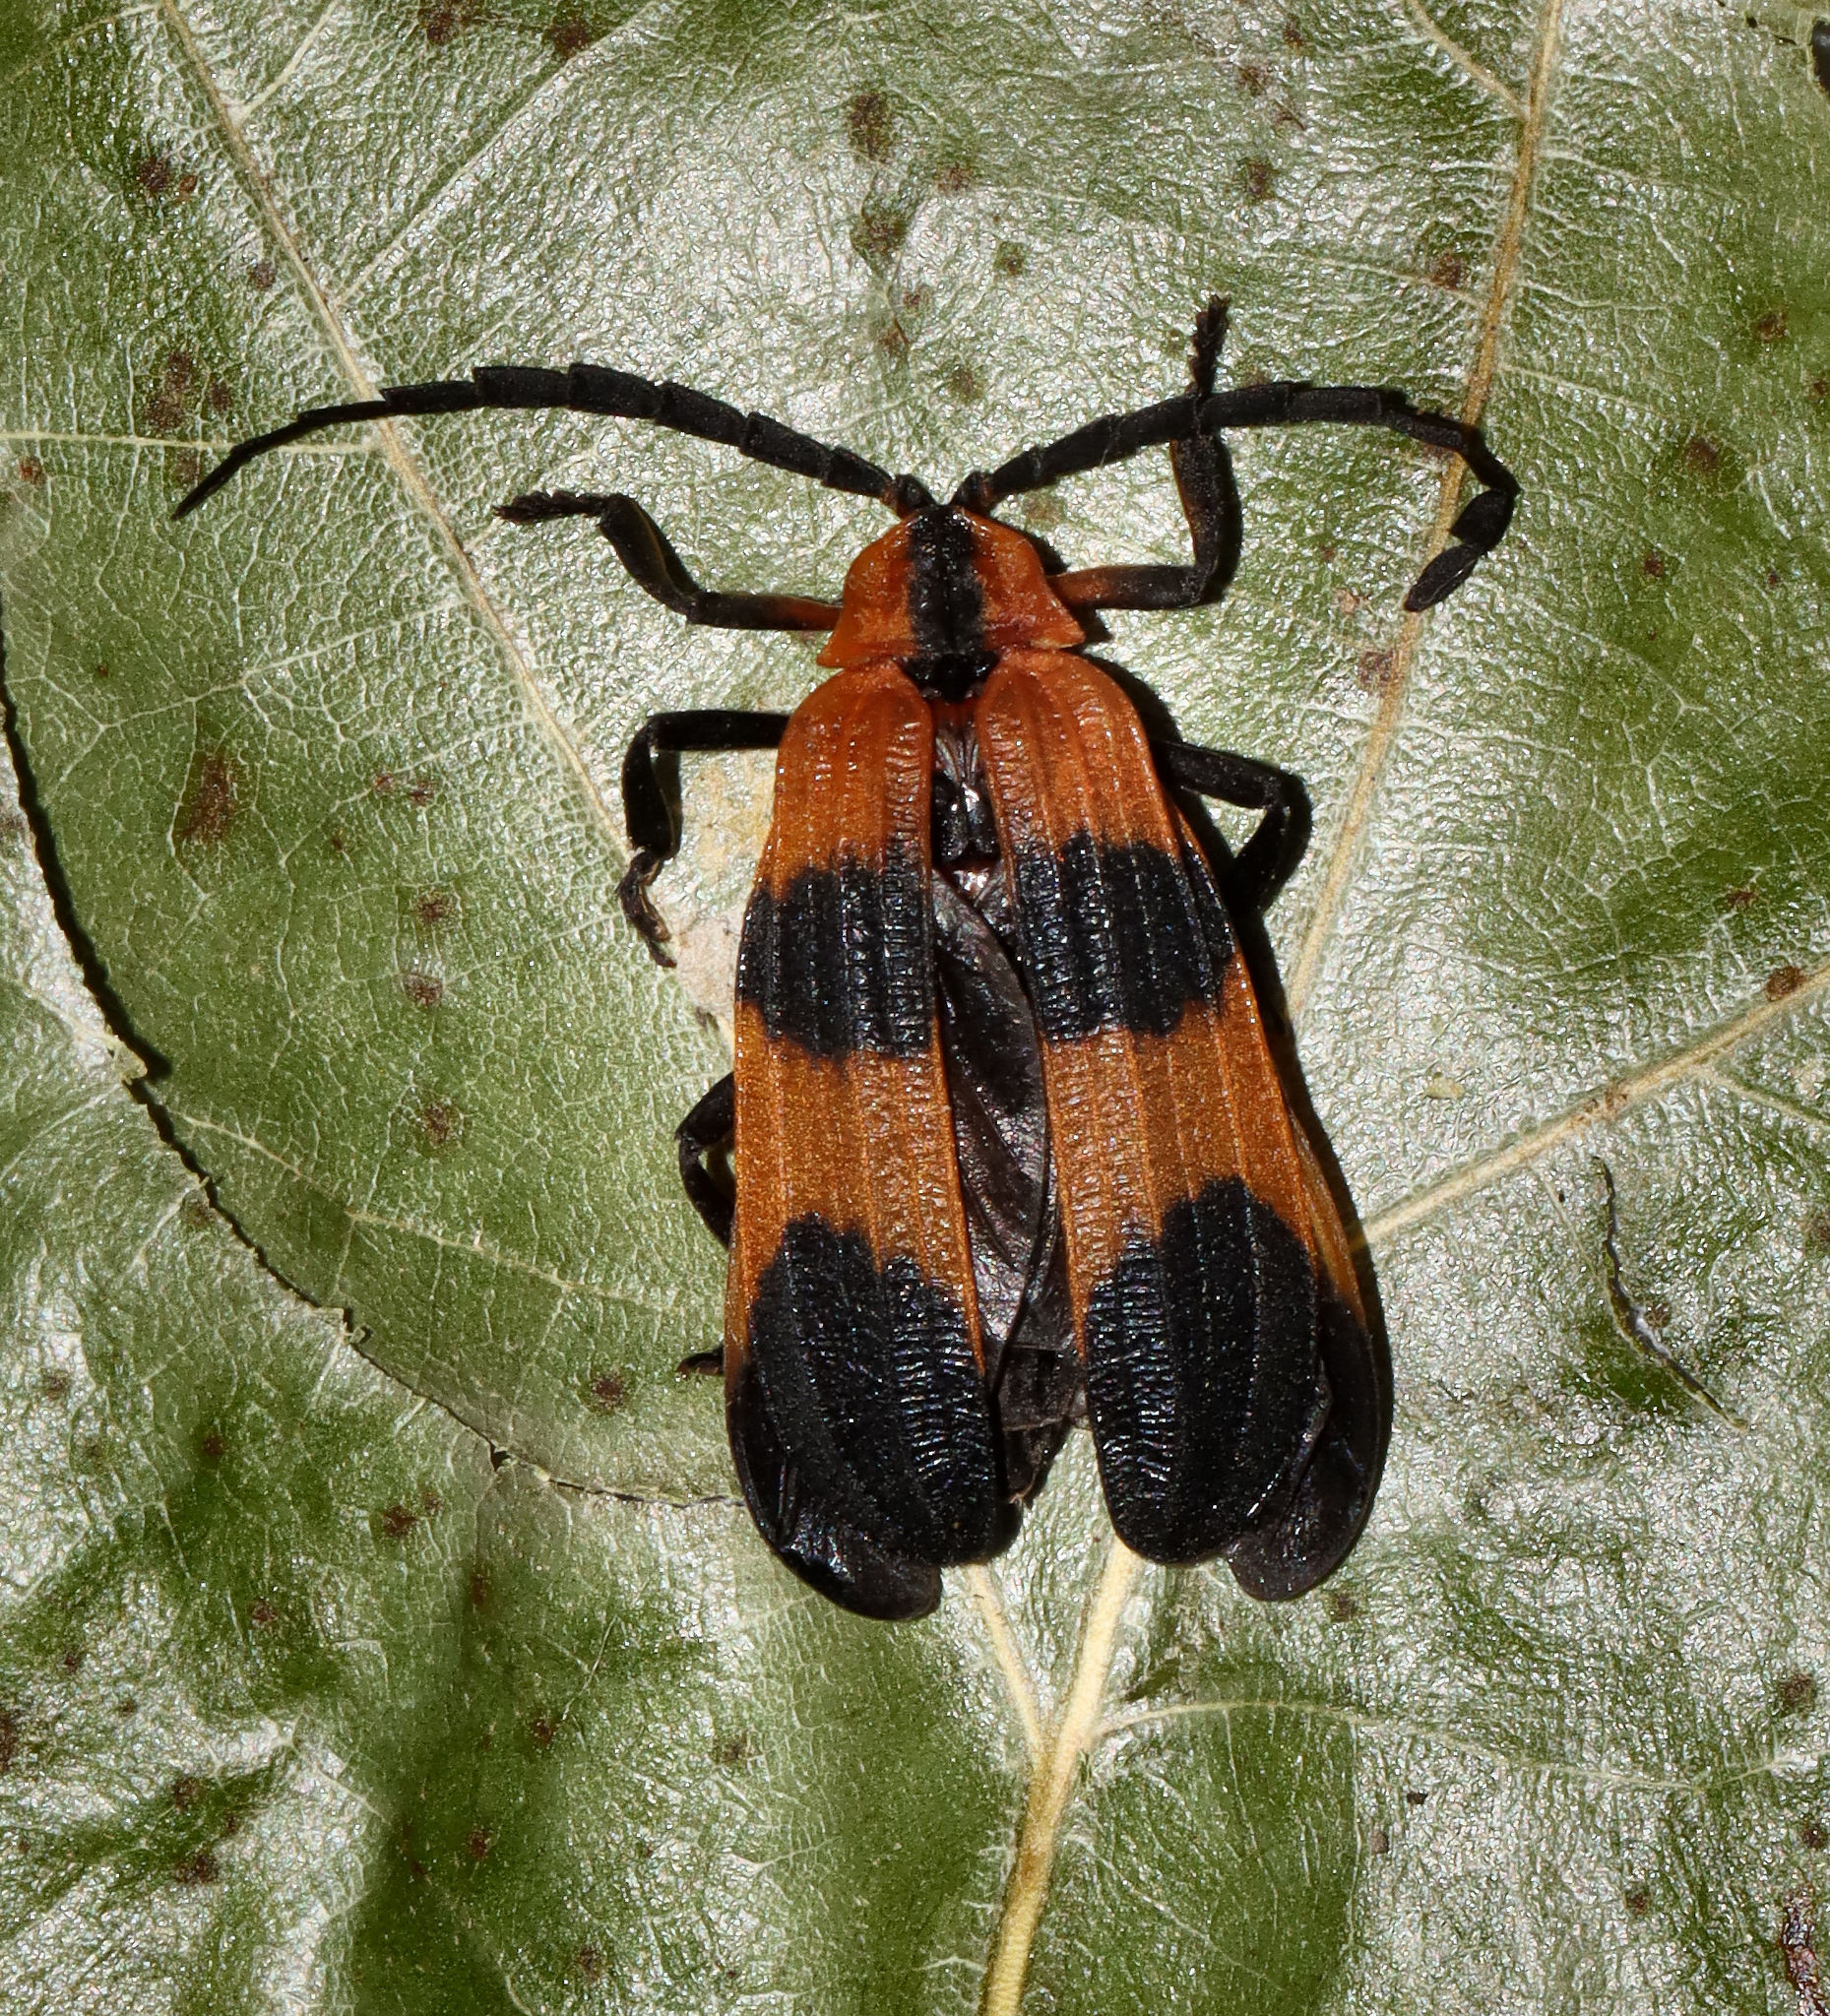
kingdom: Animalia
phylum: Arthropoda
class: Insecta
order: Coleoptera
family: Lycidae
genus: Calopteron
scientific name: Calopteron reticulatum
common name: Banded net-winged beetle
